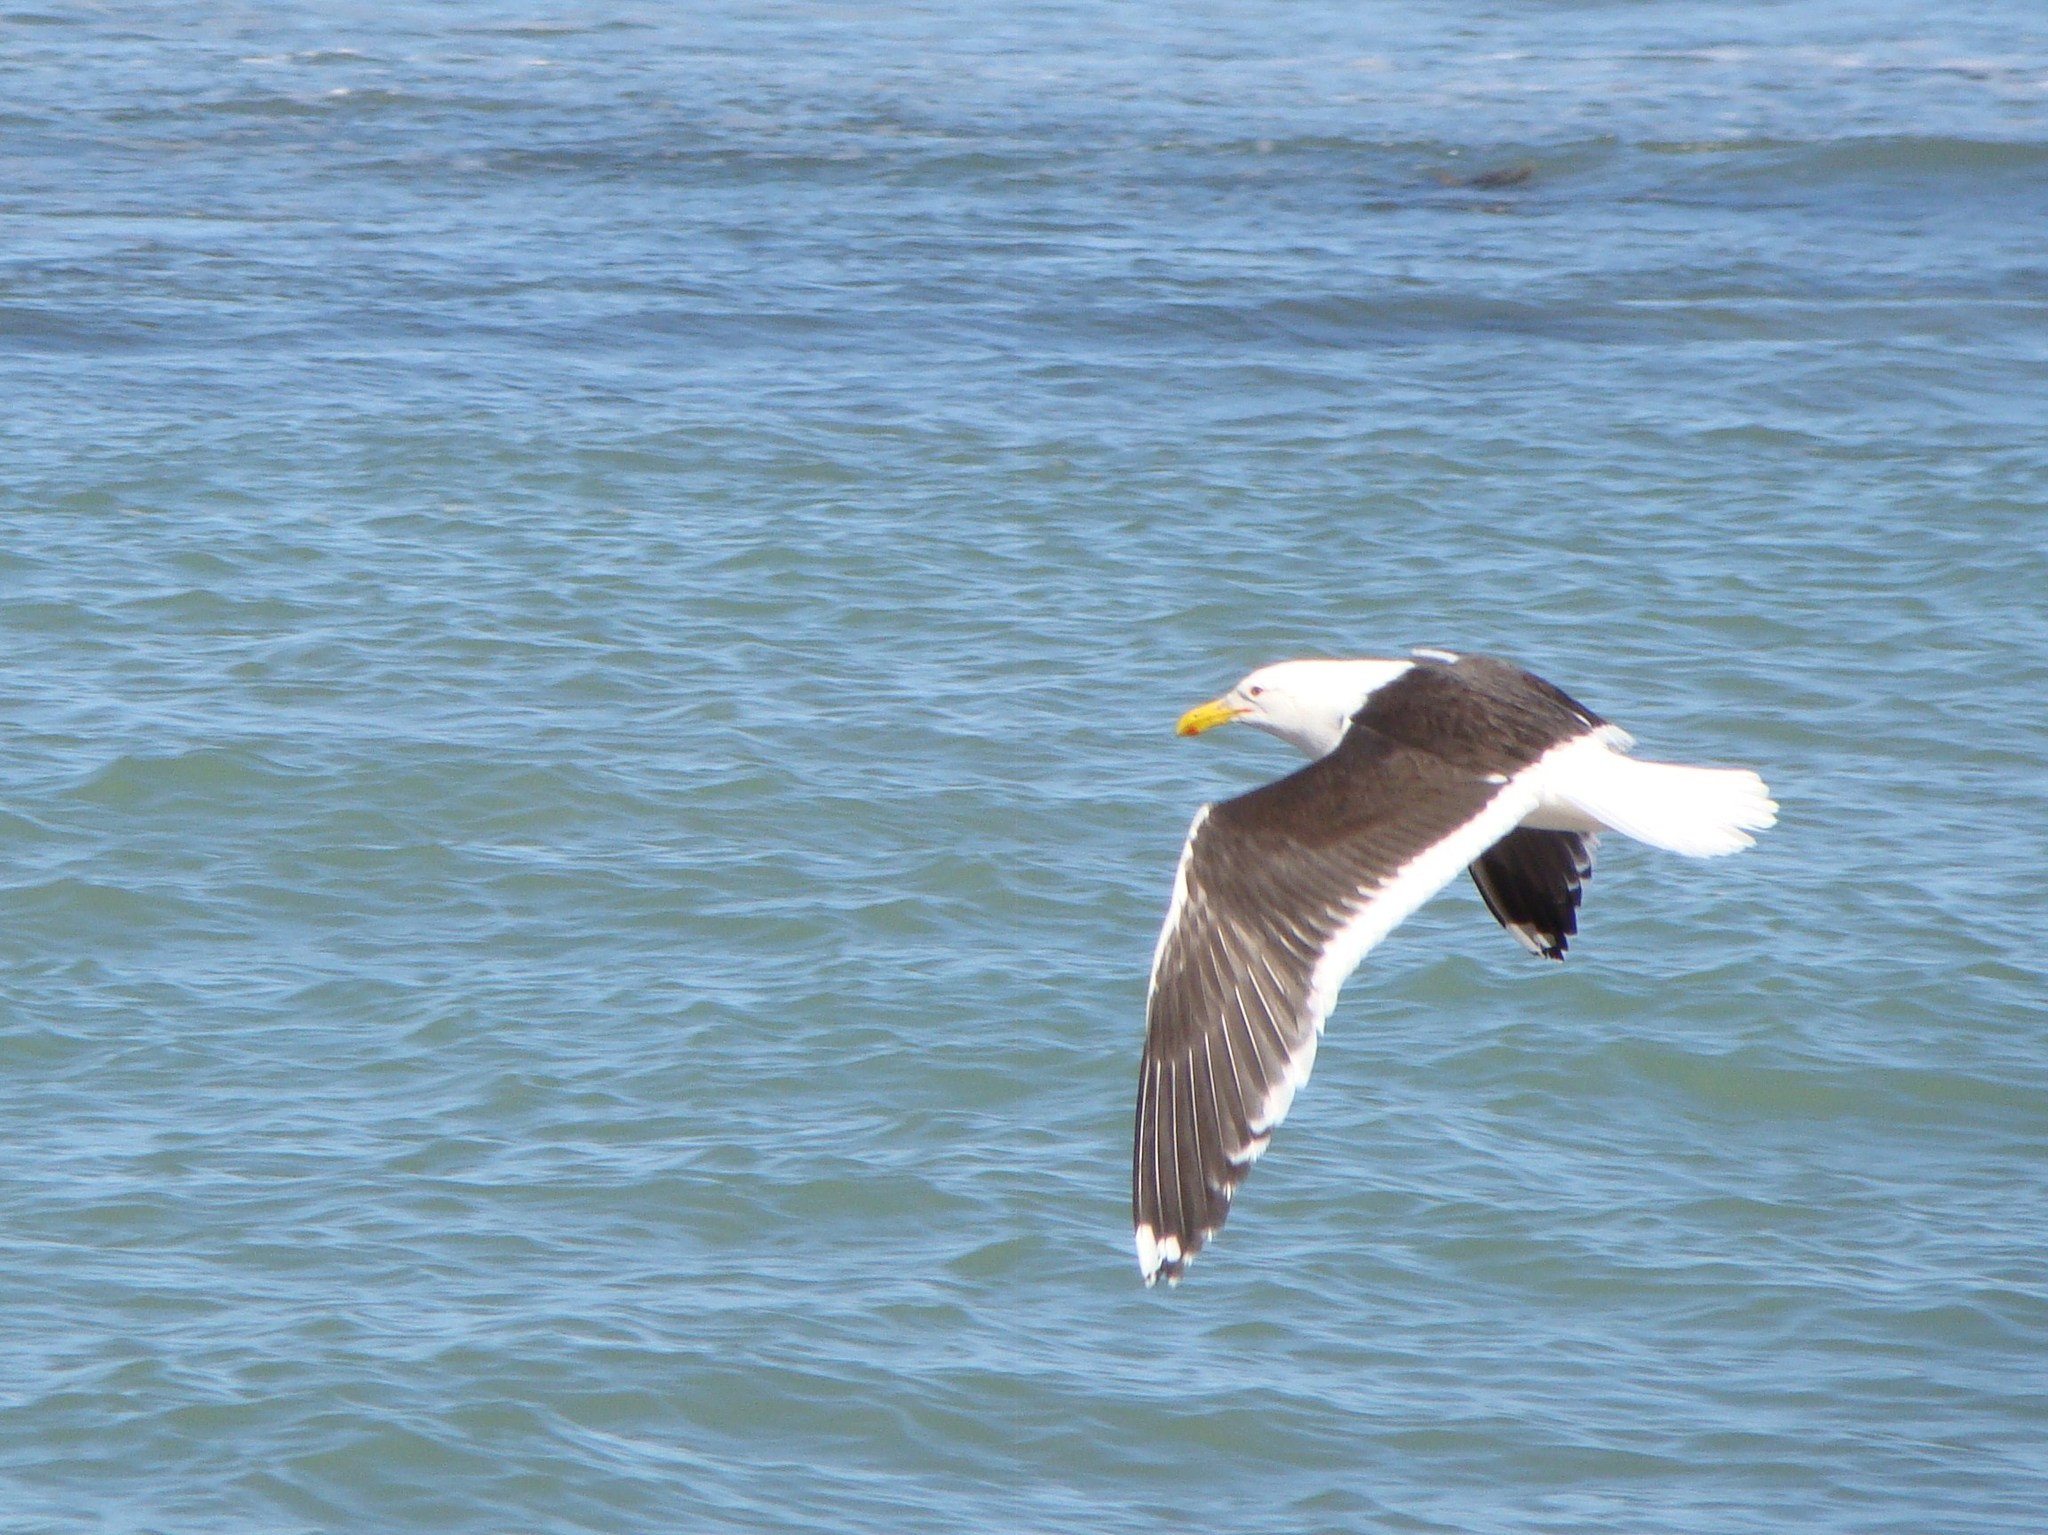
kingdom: Animalia
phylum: Chordata
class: Aves
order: Charadriiformes
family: Laridae
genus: Larus
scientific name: Larus dominicanus
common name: Kelp gull
